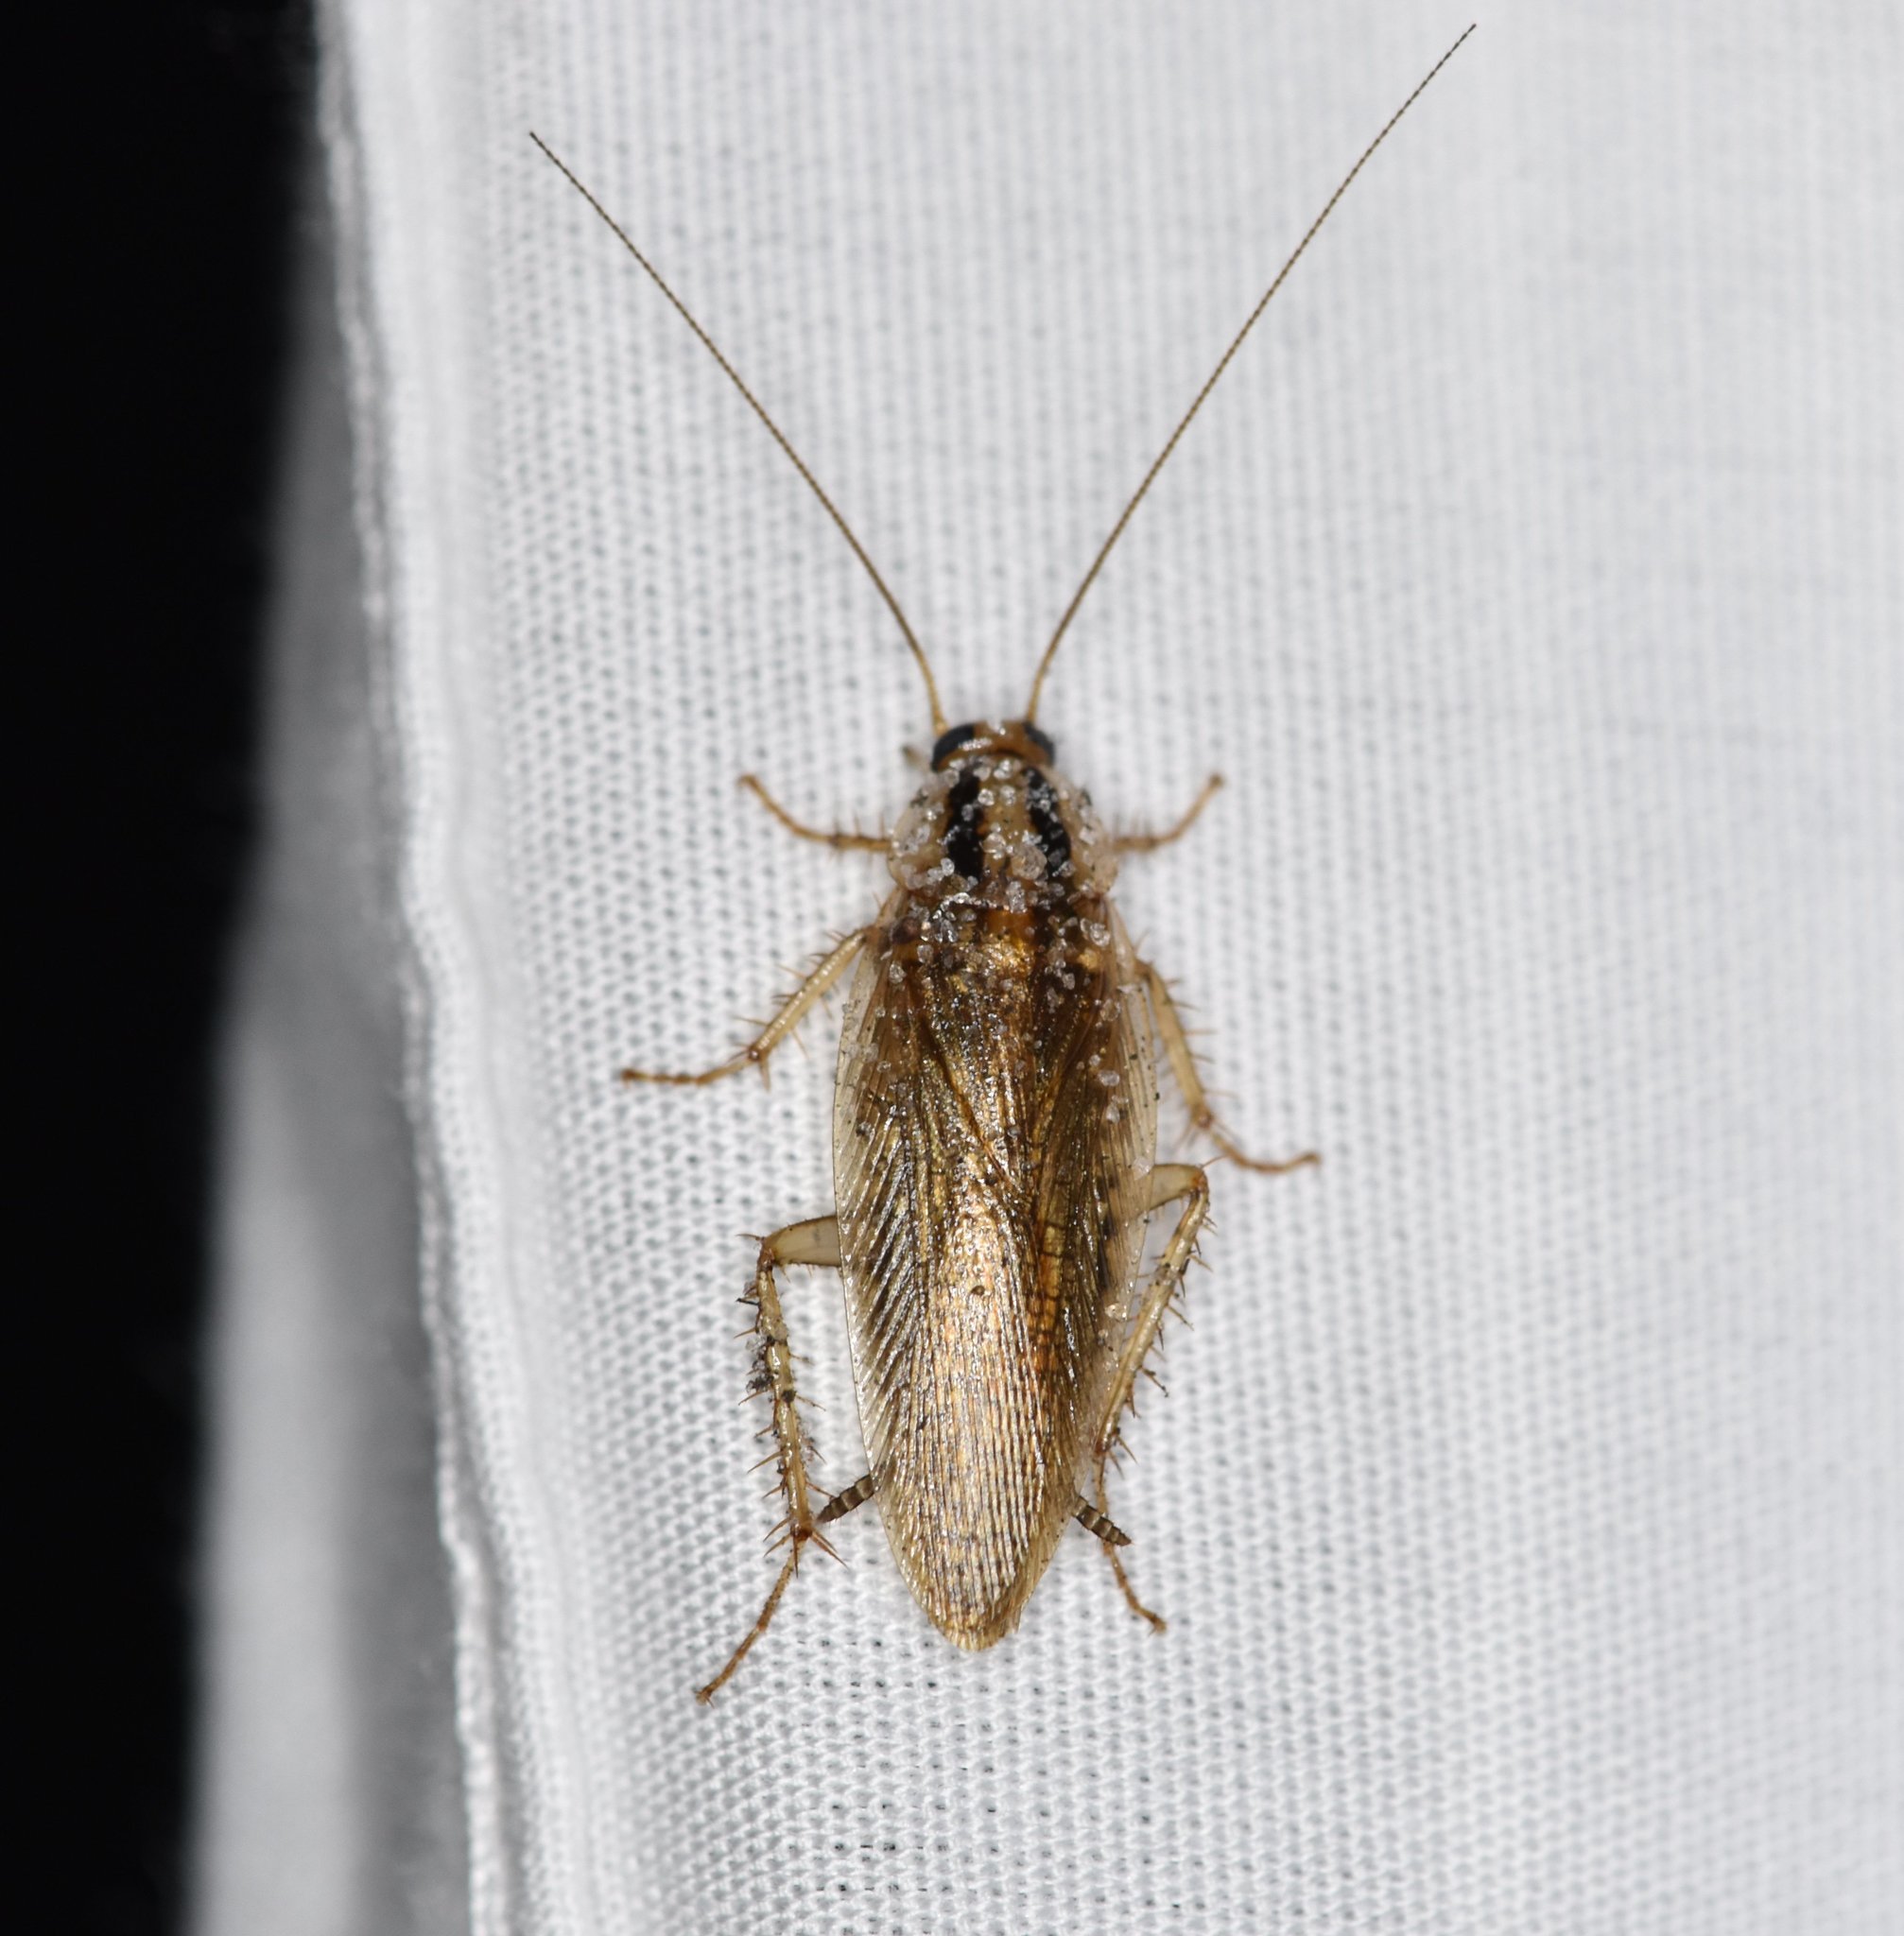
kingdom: Animalia
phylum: Arthropoda
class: Insecta
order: Blattodea
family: Ectobiidae
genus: Blattella
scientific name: Blattella asahinai
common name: Asian cockroach
